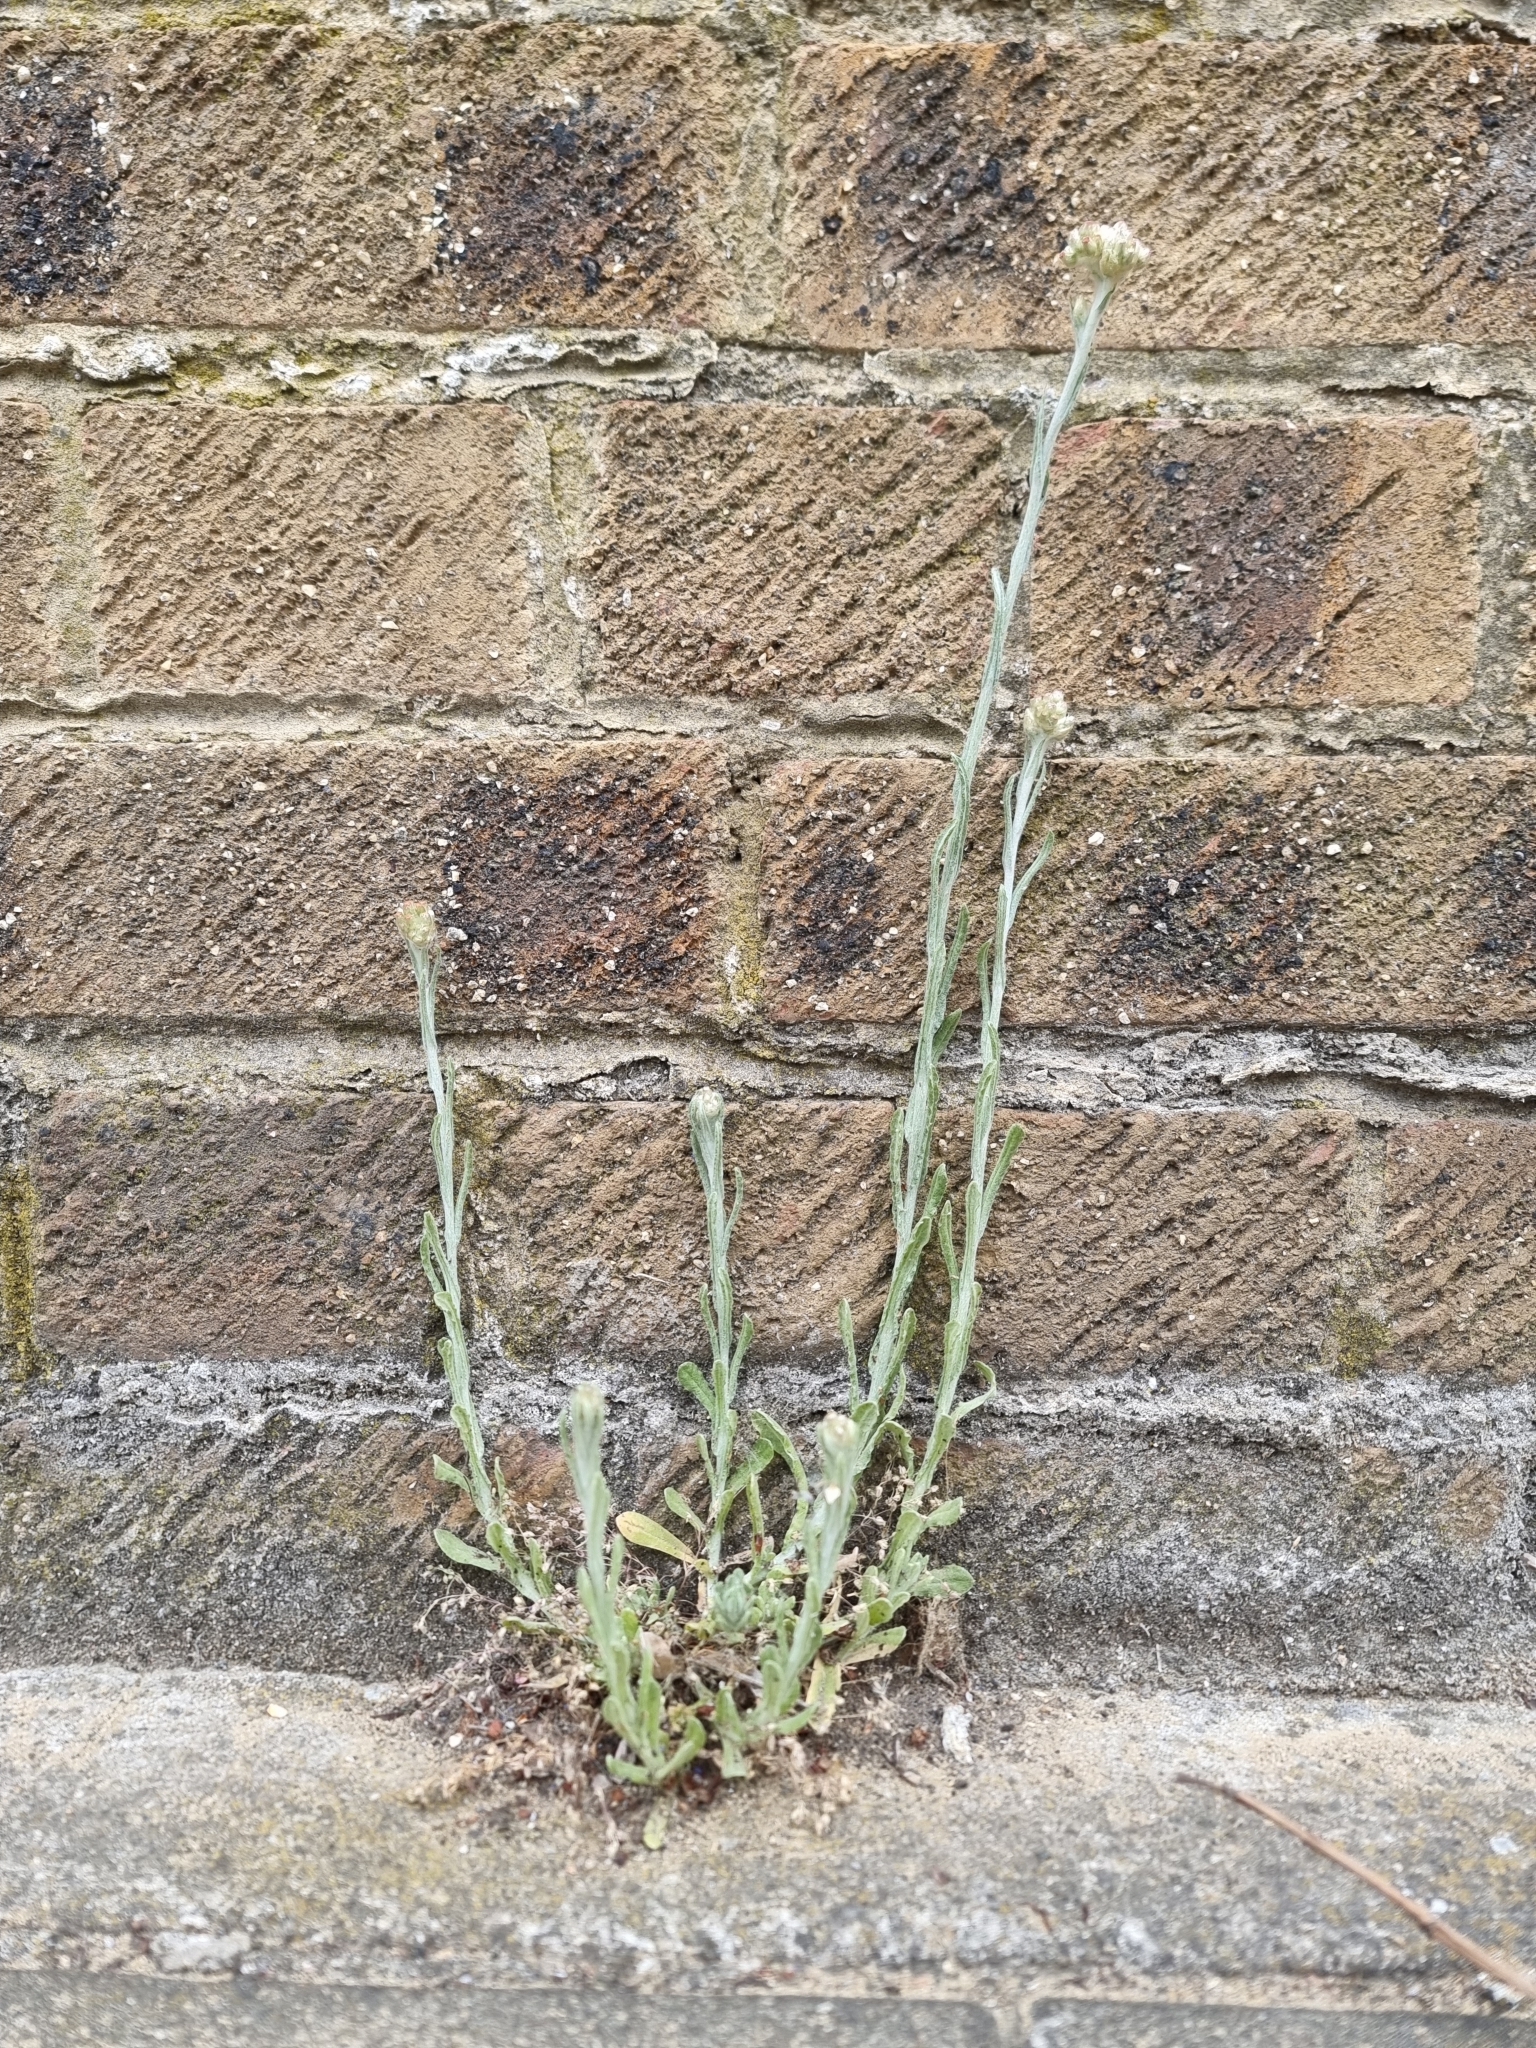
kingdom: Plantae
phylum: Tracheophyta
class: Magnoliopsida
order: Asterales
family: Asteraceae
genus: Helichrysum
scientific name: Helichrysum luteoalbum
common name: Daisy
